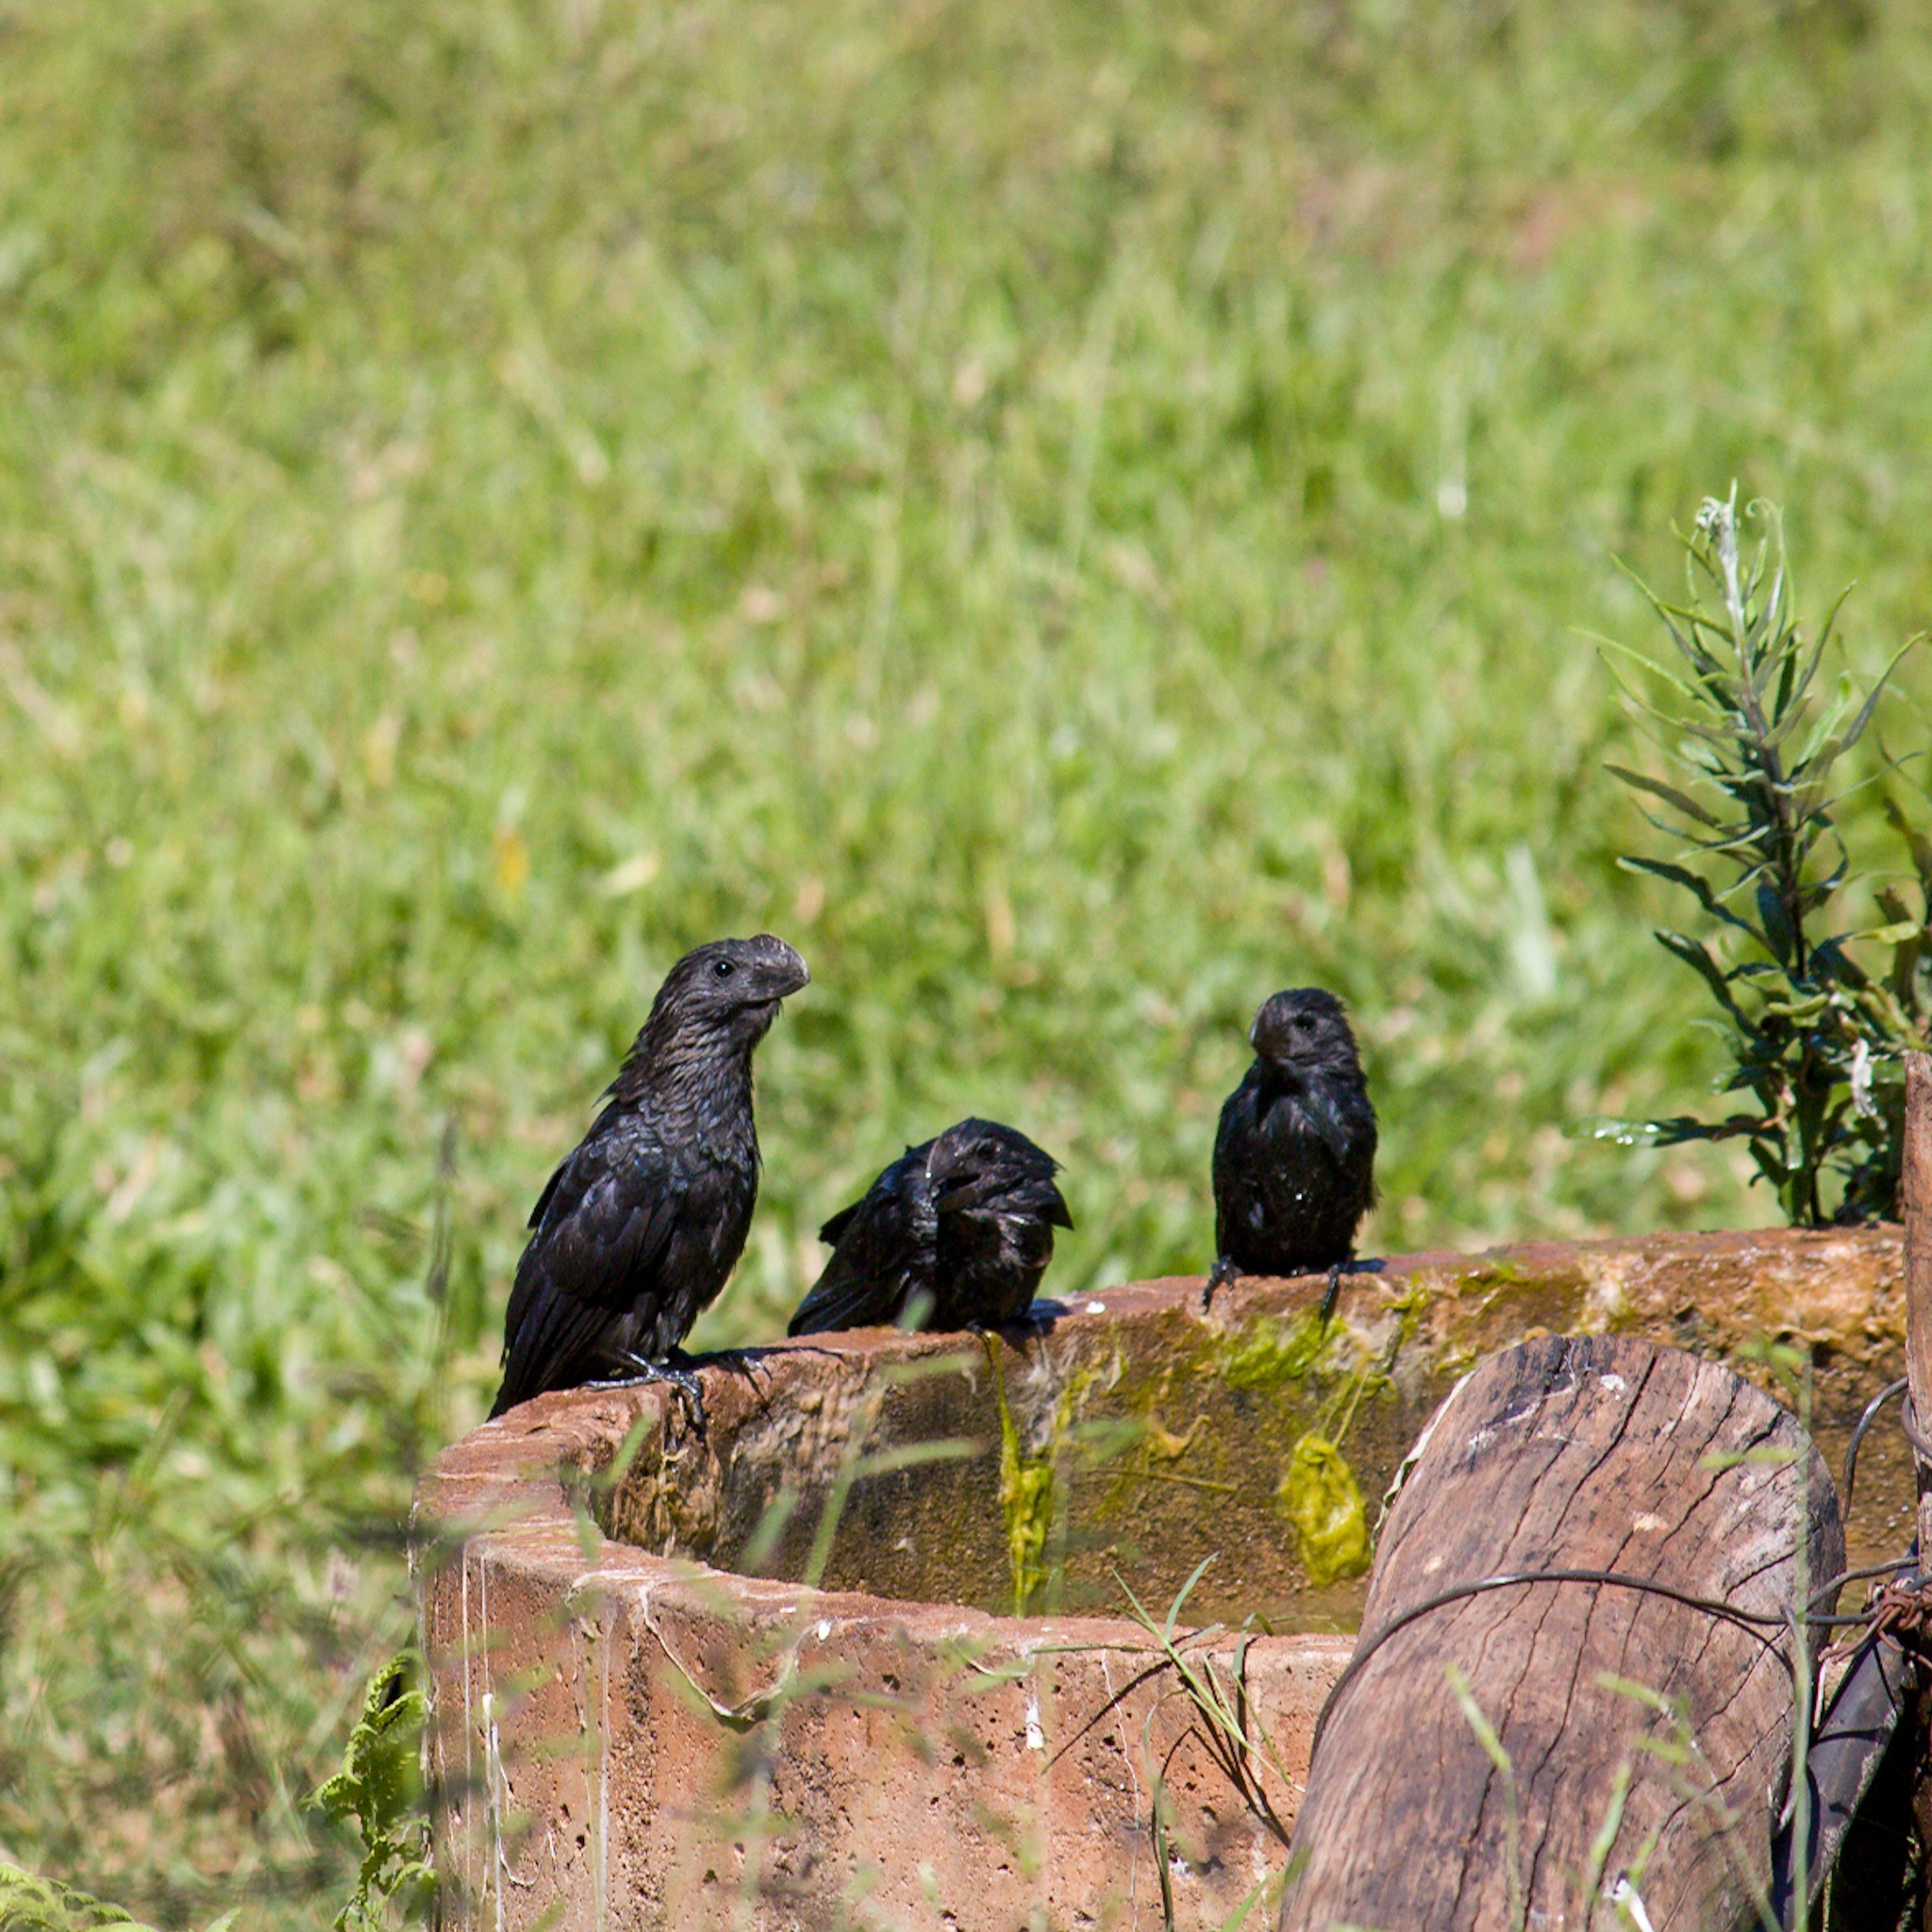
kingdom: Animalia
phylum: Chordata
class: Aves
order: Cuculiformes
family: Cuculidae
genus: Crotophaga
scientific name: Crotophaga ani
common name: Smooth-billed ani
